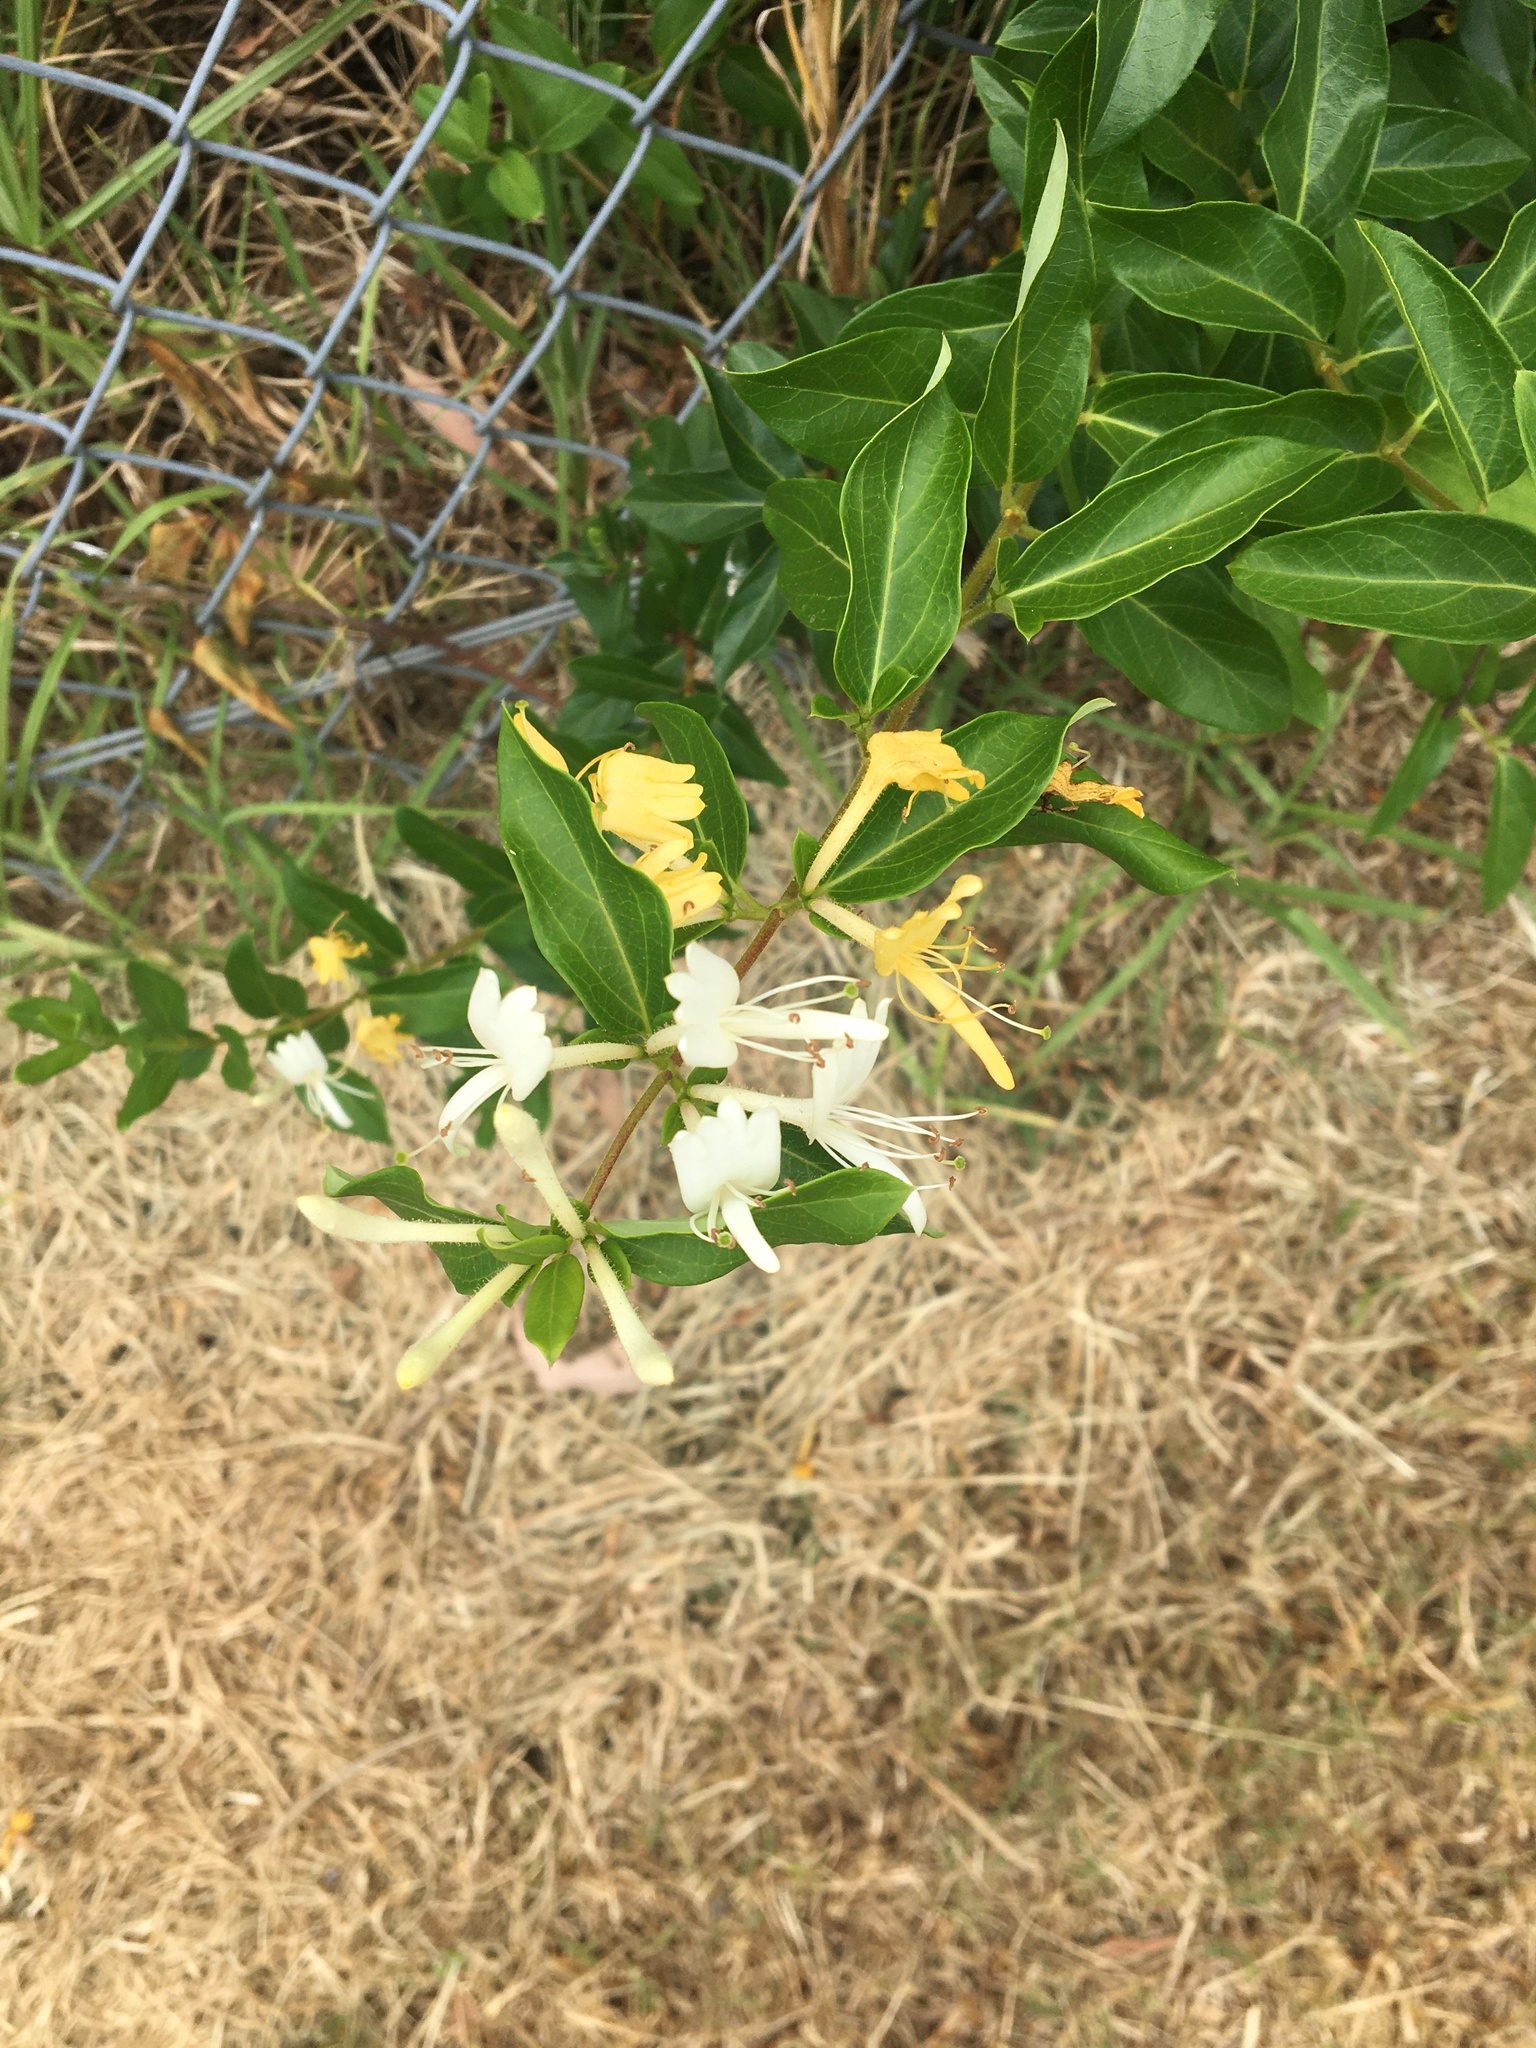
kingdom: Plantae
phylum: Tracheophyta
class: Magnoliopsida
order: Dipsacales
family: Caprifoliaceae
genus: Lonicera
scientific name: Lonicera japonica
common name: Japanese honeysuckle
